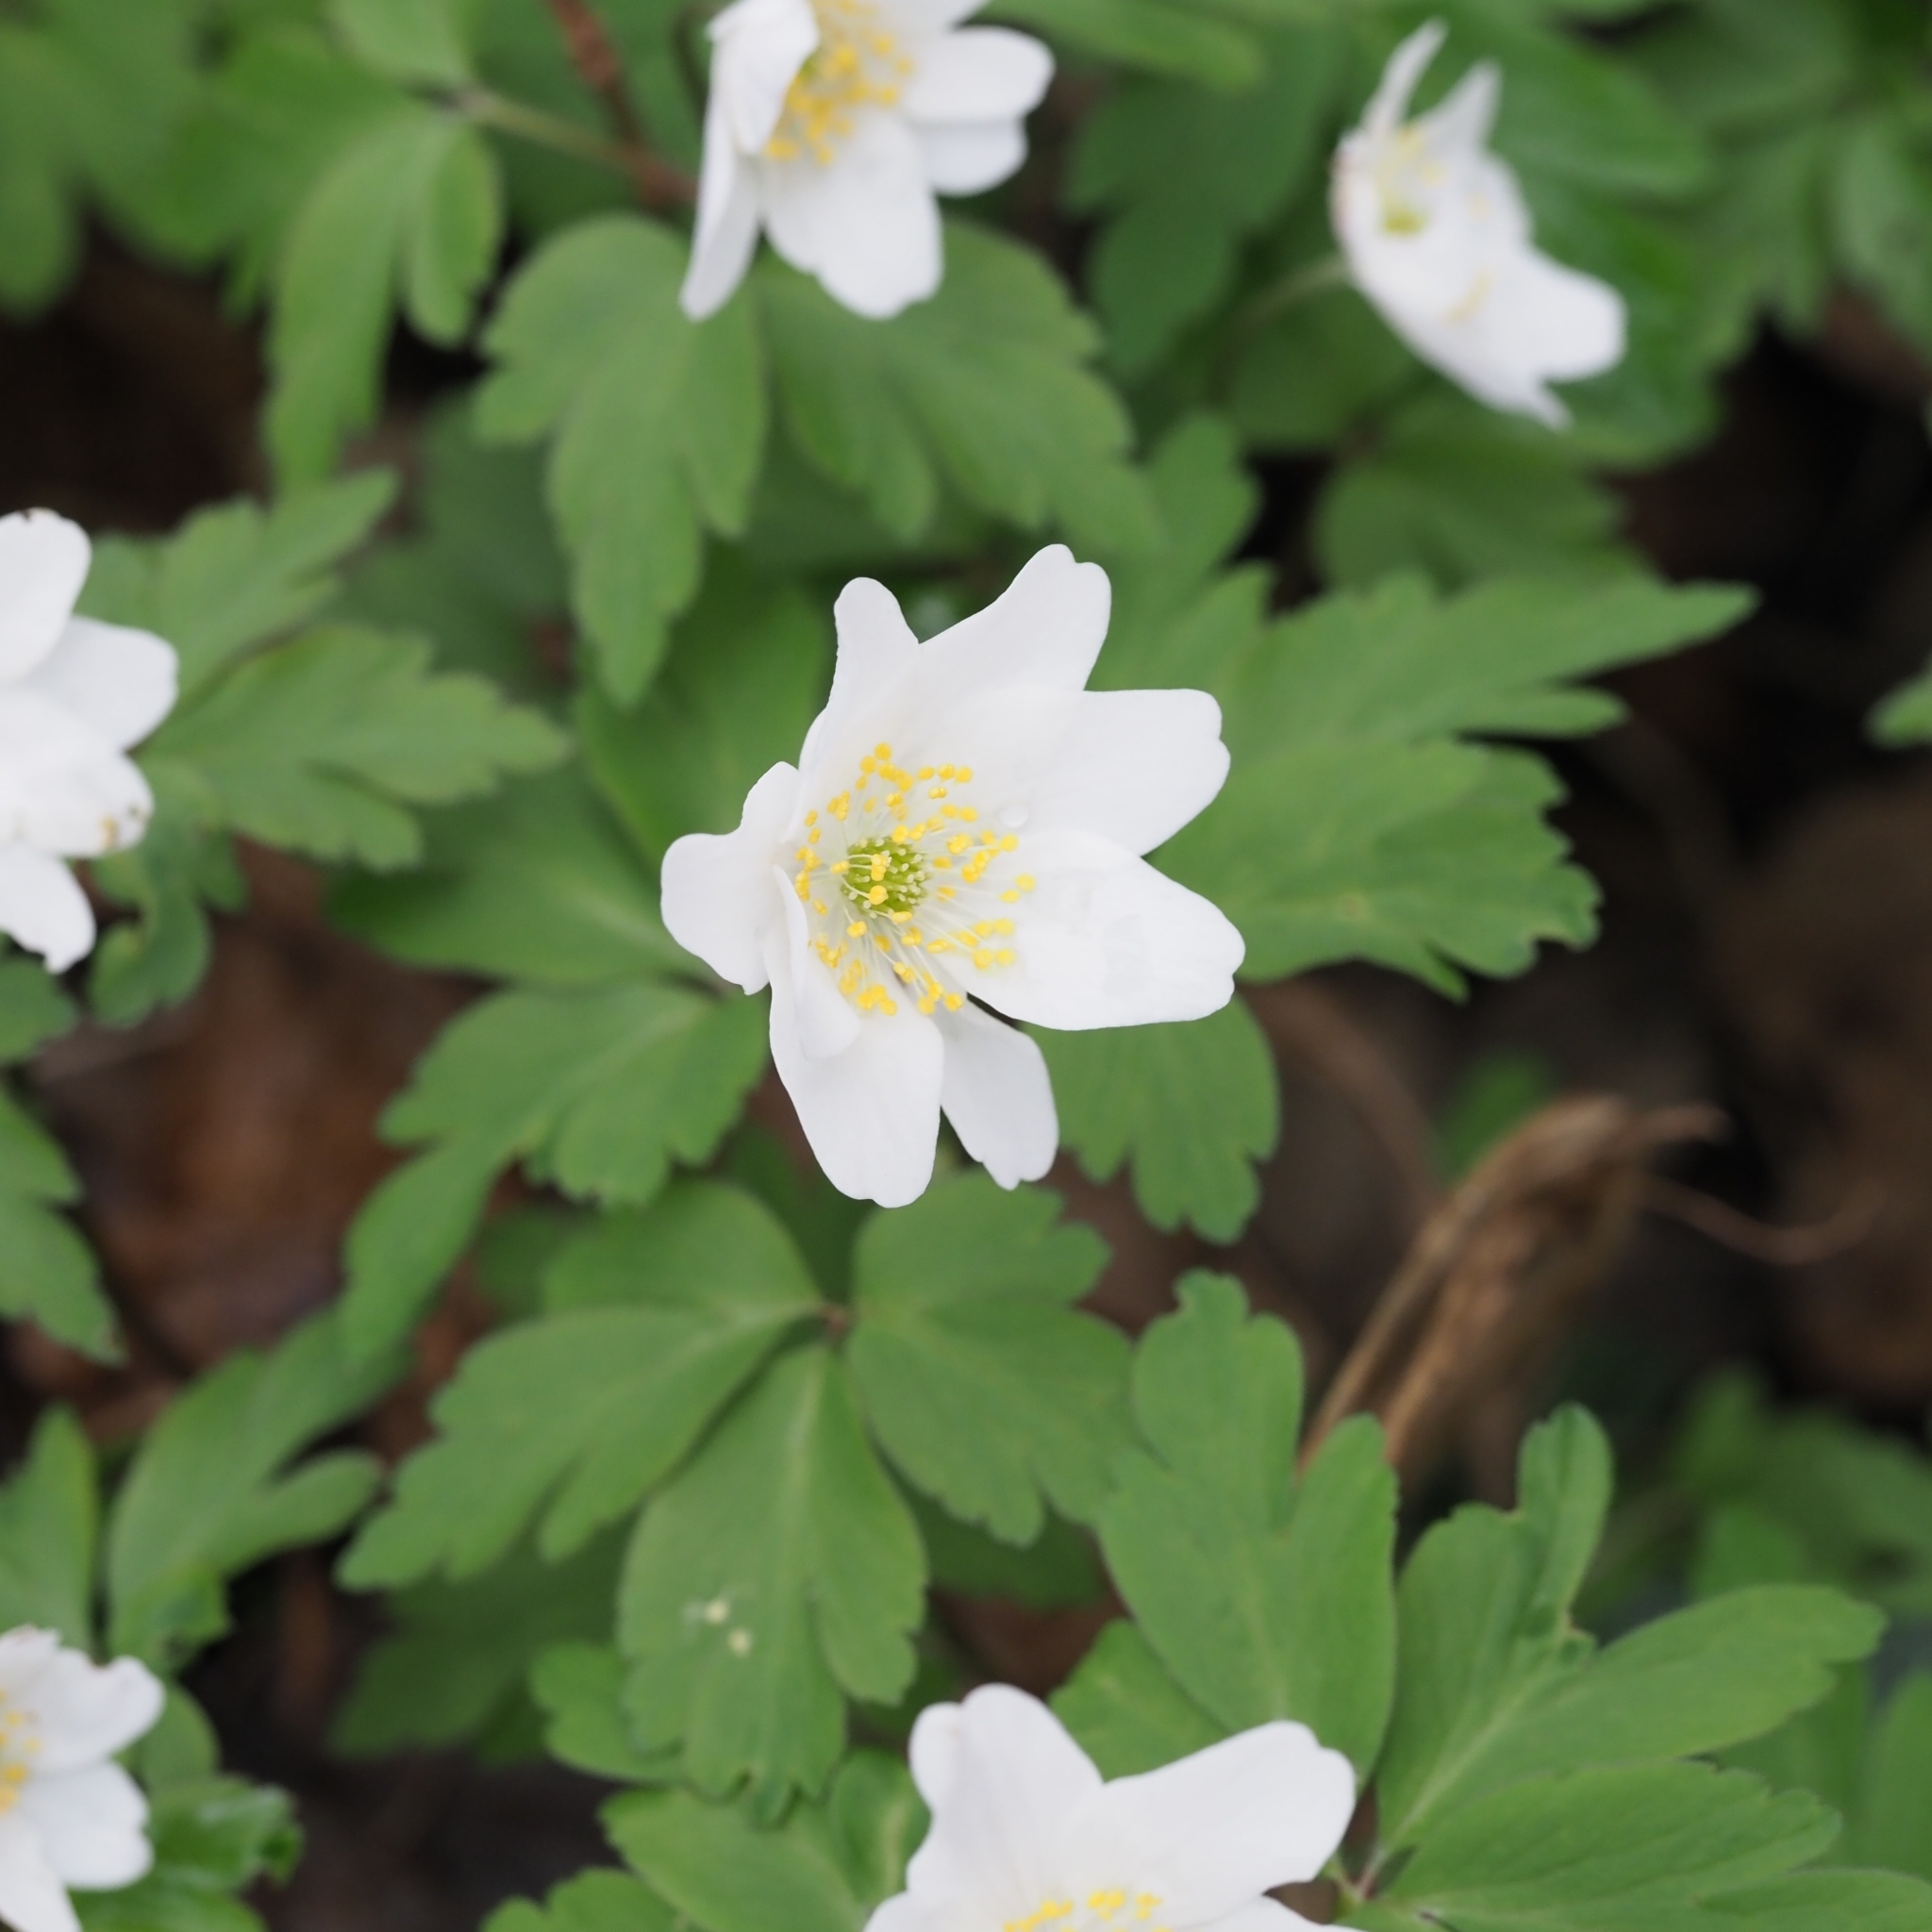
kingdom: Plantae
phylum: Tracheophyta
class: Magnoliopsida
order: Ranunculales
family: Ranunculaceae
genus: Anemone
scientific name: Anemone nemorosa
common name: Wood anemone
